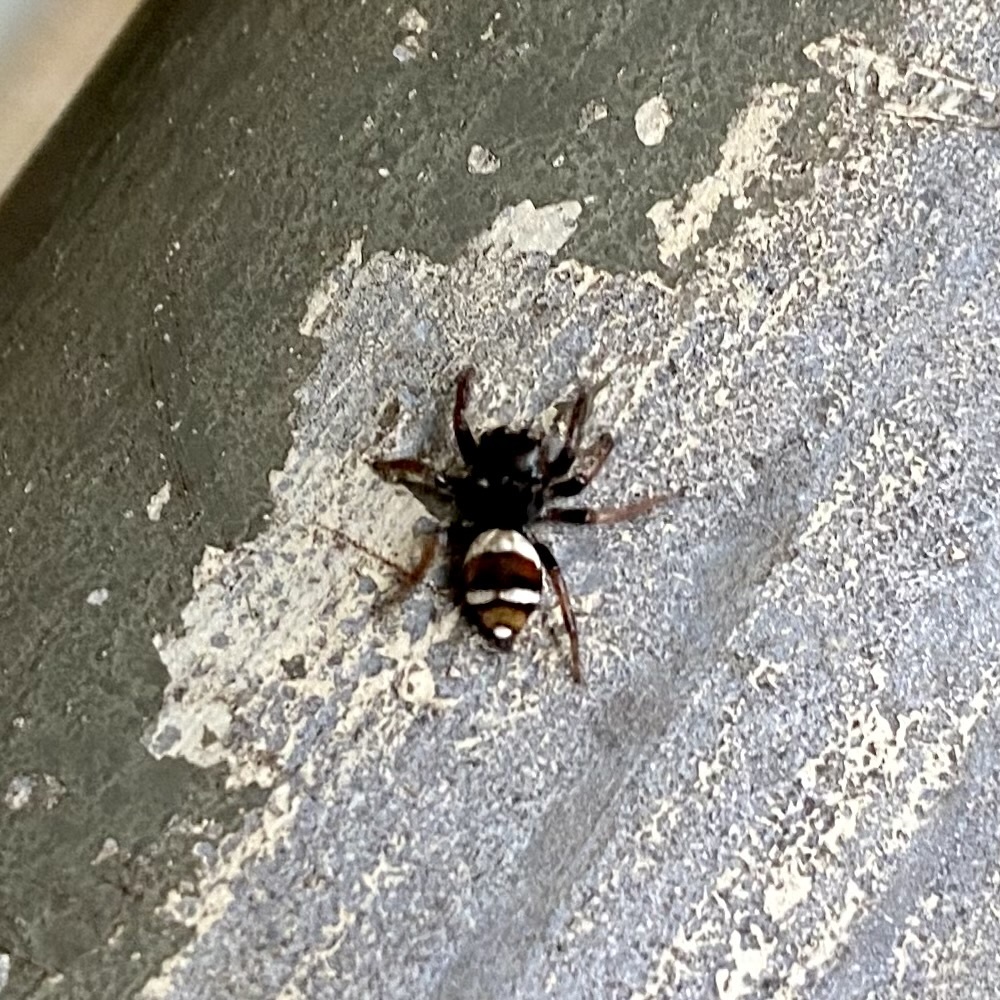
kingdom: Animalia
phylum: Arthropoda
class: Arachnida
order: Araneae
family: Salticidae
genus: Ptocasius
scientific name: Ptocasius strupifer
